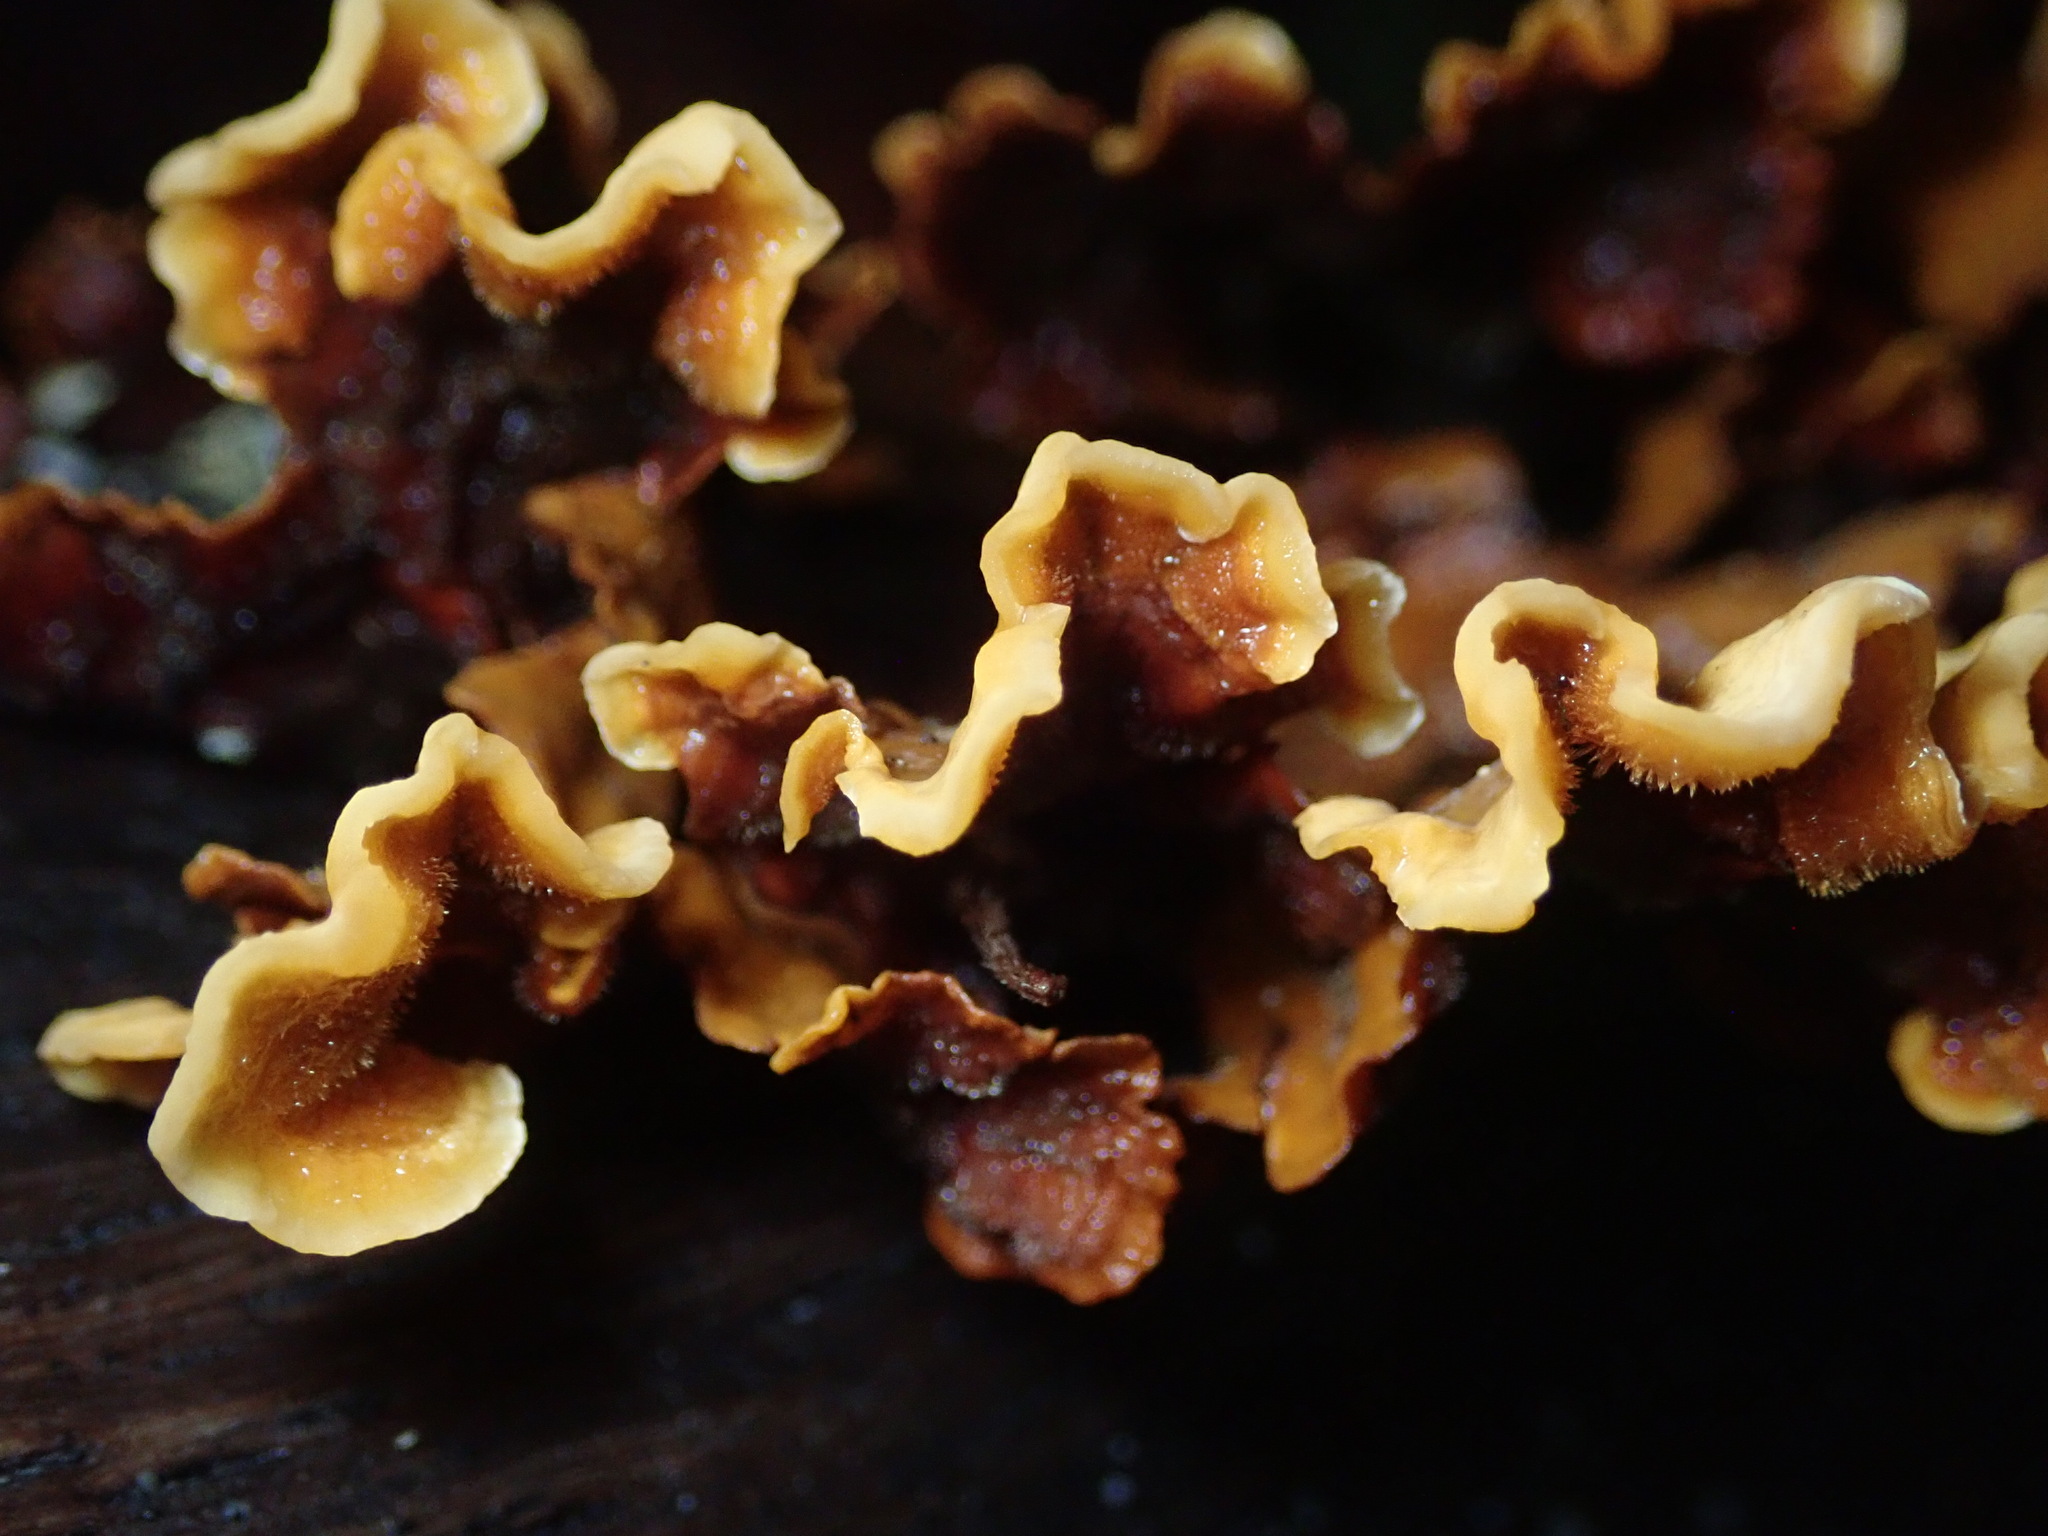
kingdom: Fungi
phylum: Basidiomycota
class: Agaricomycetes
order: Russulales
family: Stereaceae
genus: Stereum
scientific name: Stereum hirsutum
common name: Hairy curtain crust
